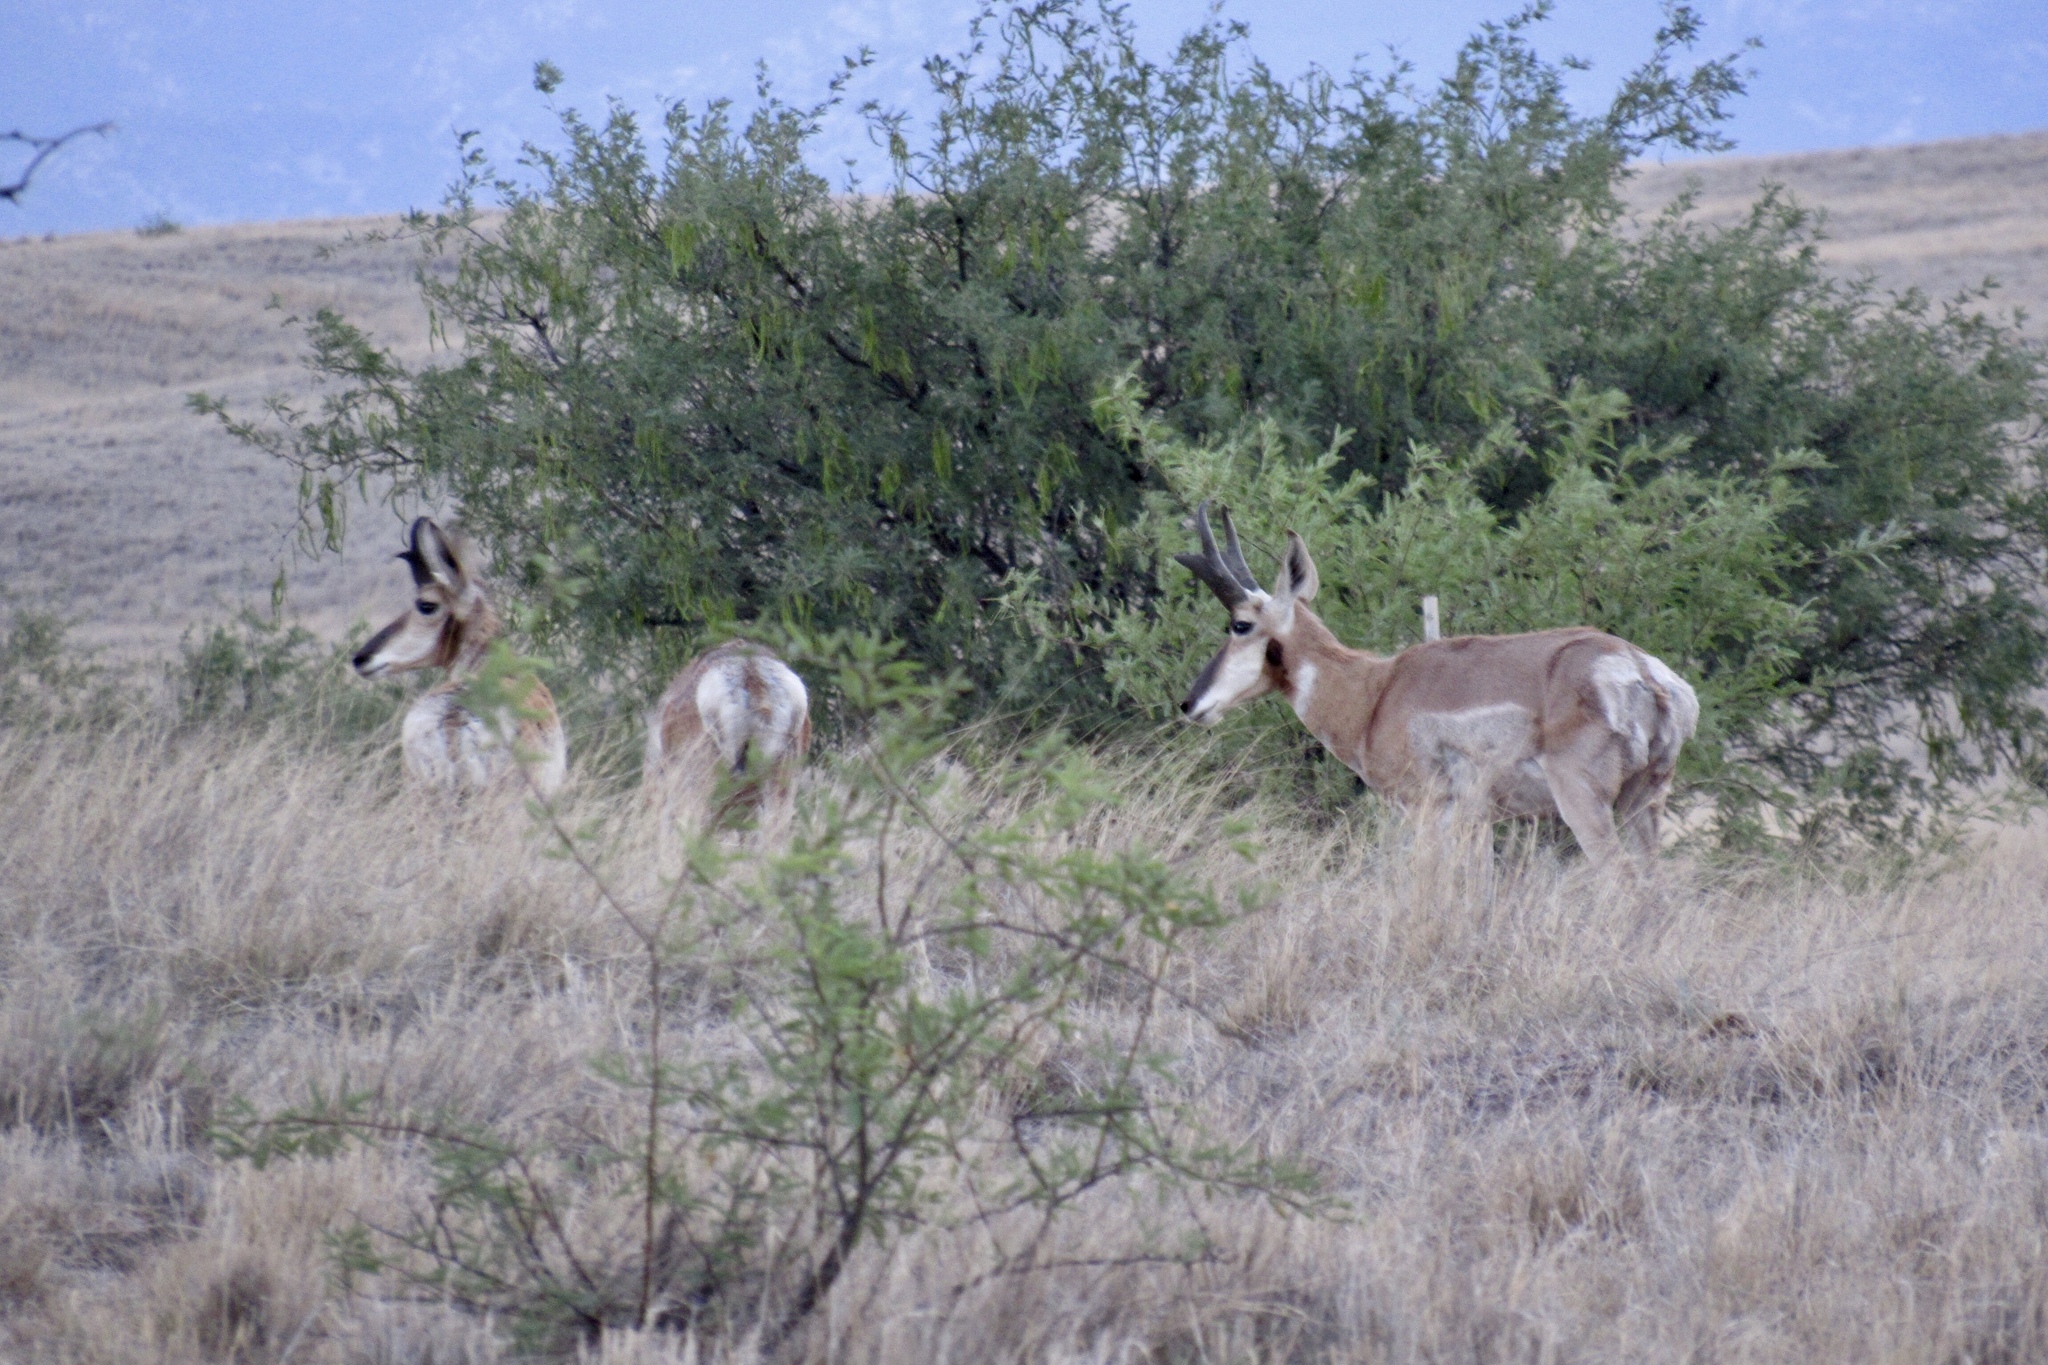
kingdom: Animalia
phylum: Chordata
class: Mammalia
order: Artiodactyla
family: Antilocapridae
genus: Antilocapra
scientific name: Antilocapra americana
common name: Pronghorn
